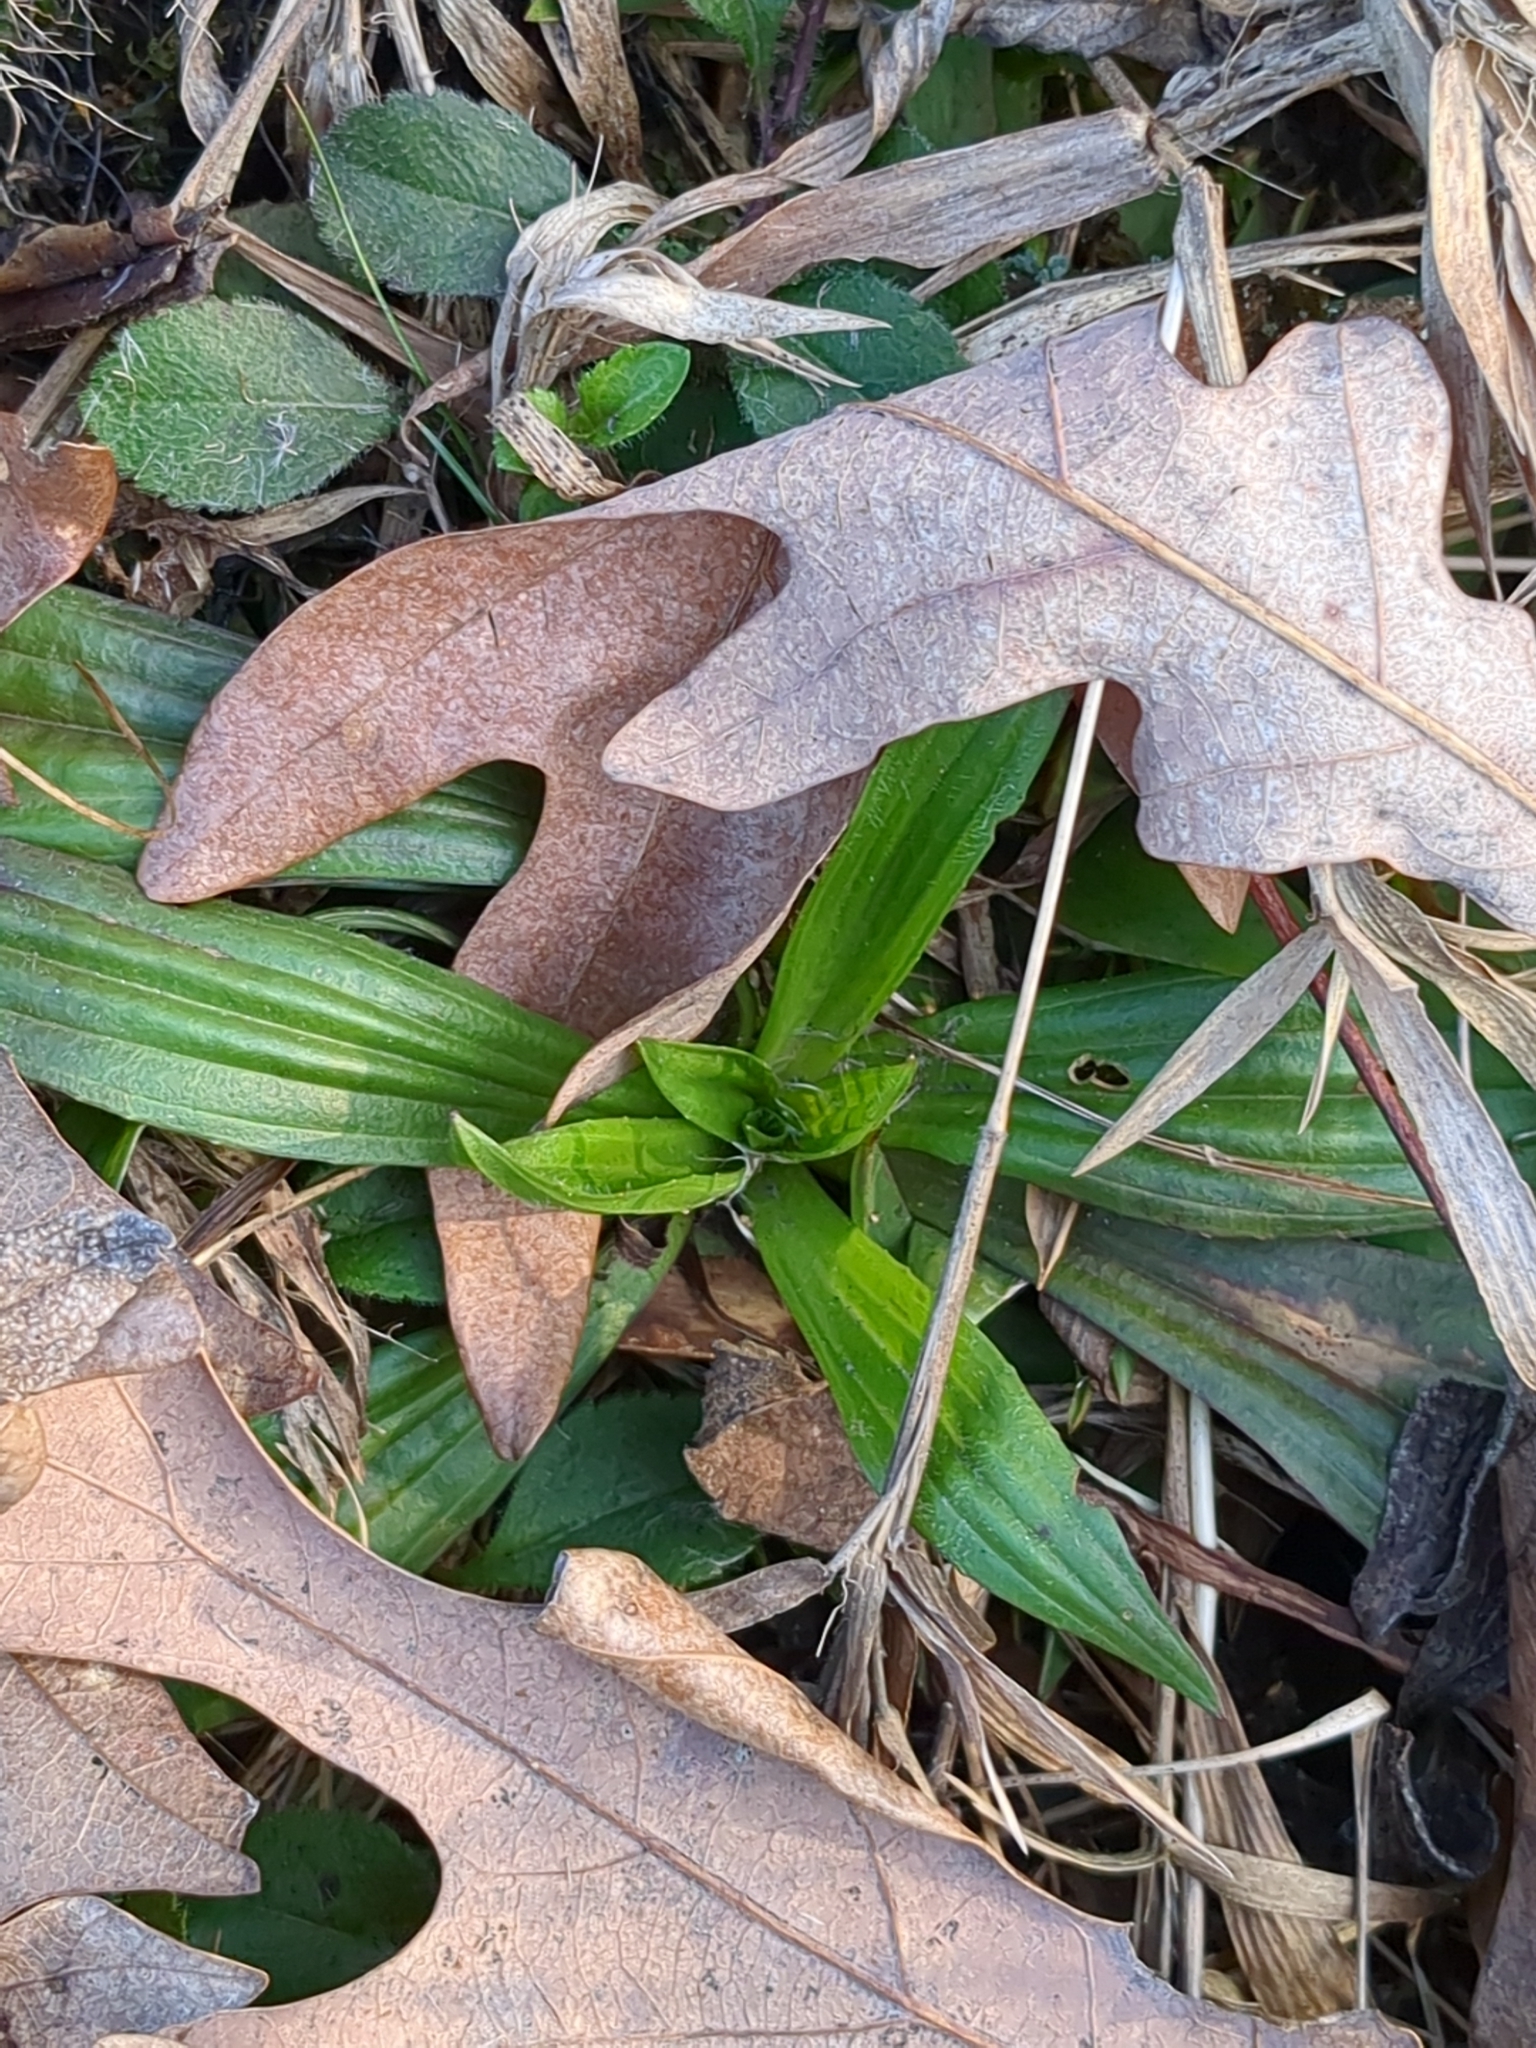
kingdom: Plantae
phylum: Tracheophyta
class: Magnoliopsida
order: Lamiales
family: Plantaginaceae
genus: Plantago
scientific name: Plantago lanceolata
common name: Ribwort plantain
